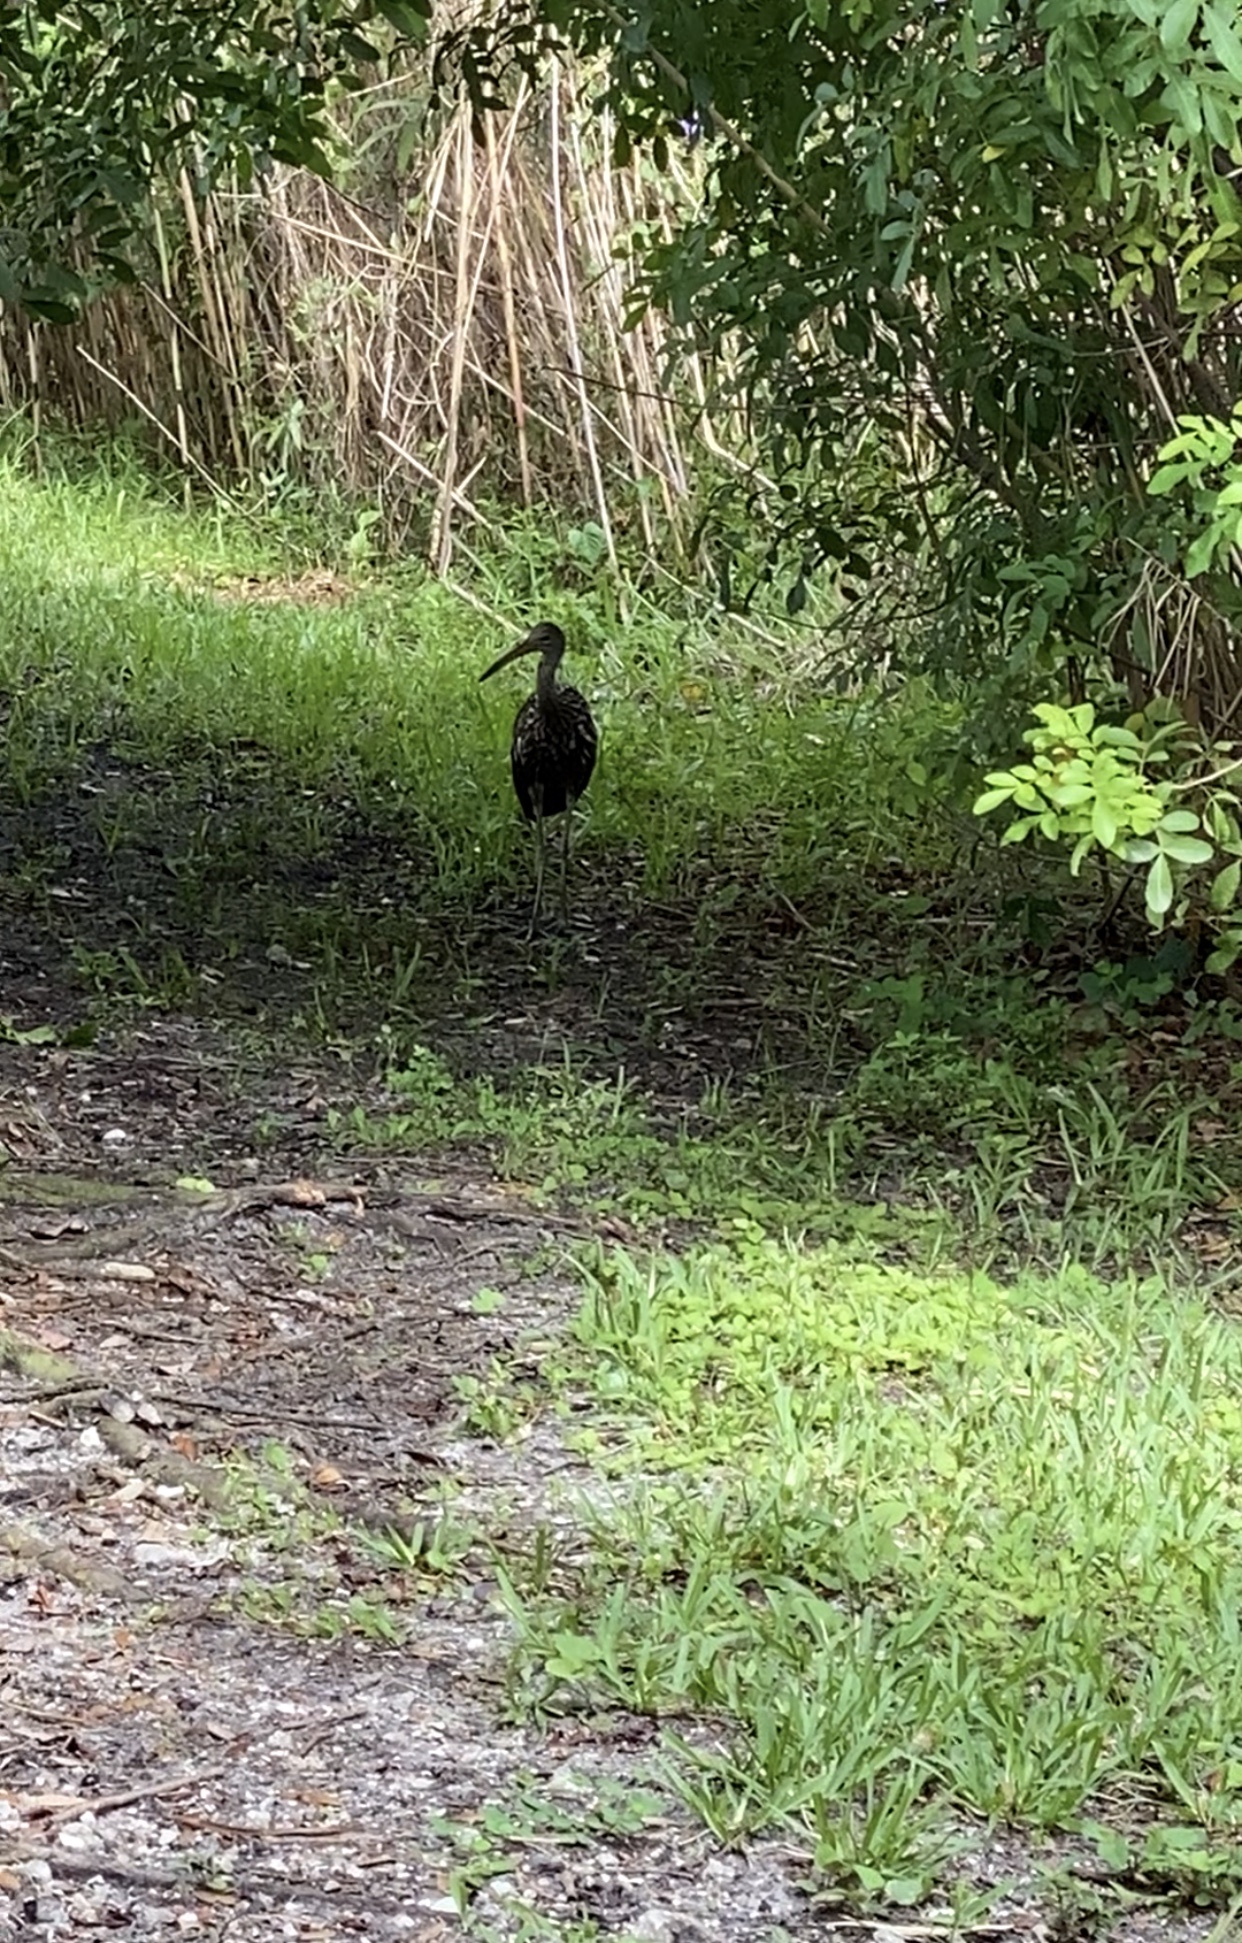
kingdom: Animalia
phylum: Chordata
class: Aves
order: Gruiformes
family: Aramidae
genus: Aramus
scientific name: Aramus guarauna
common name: Limpkin
